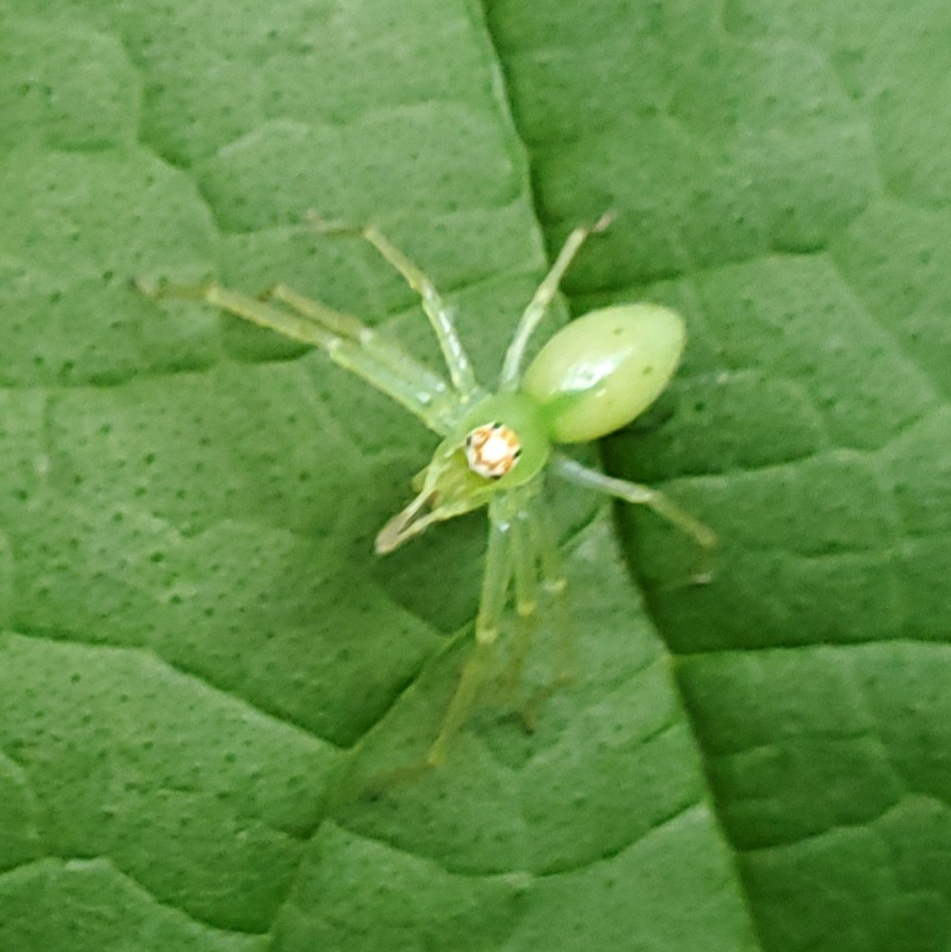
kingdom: Animalia
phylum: Arthropoda
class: Arachnida
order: Araneae
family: Salticidae
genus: Lyssomanes
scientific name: Lyssomanes viridis
